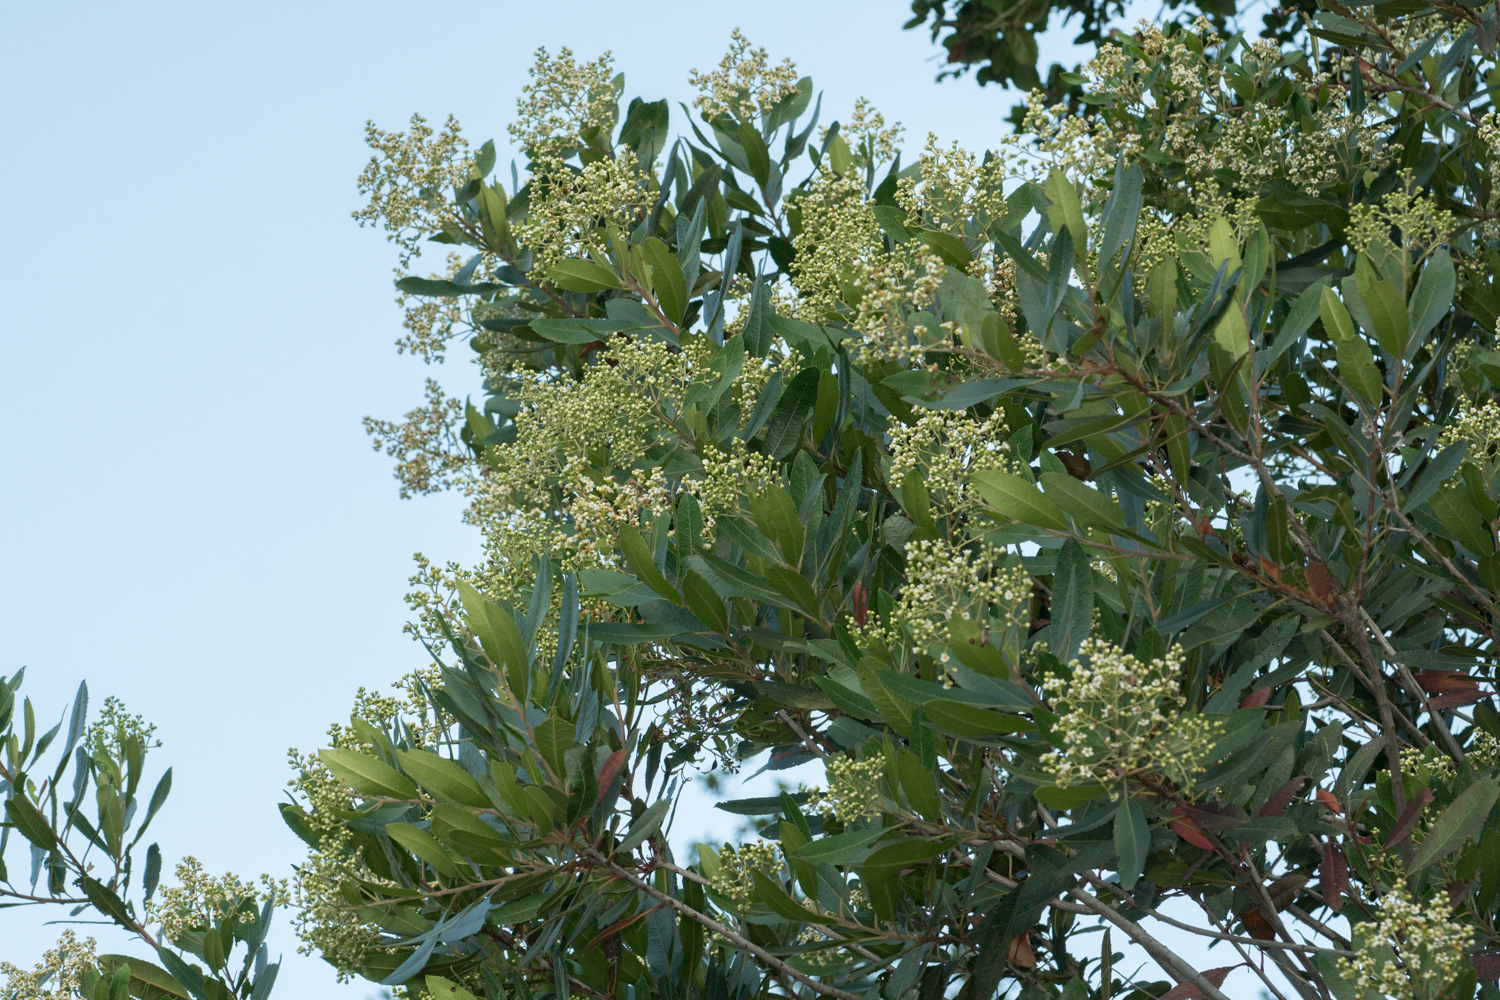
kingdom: Plantae
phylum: Tracheophyta
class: Magnoliopsida
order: Rosales
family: Rosaceae
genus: Heteromeles
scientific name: Heteromeles arbutifolia
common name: California-holly
